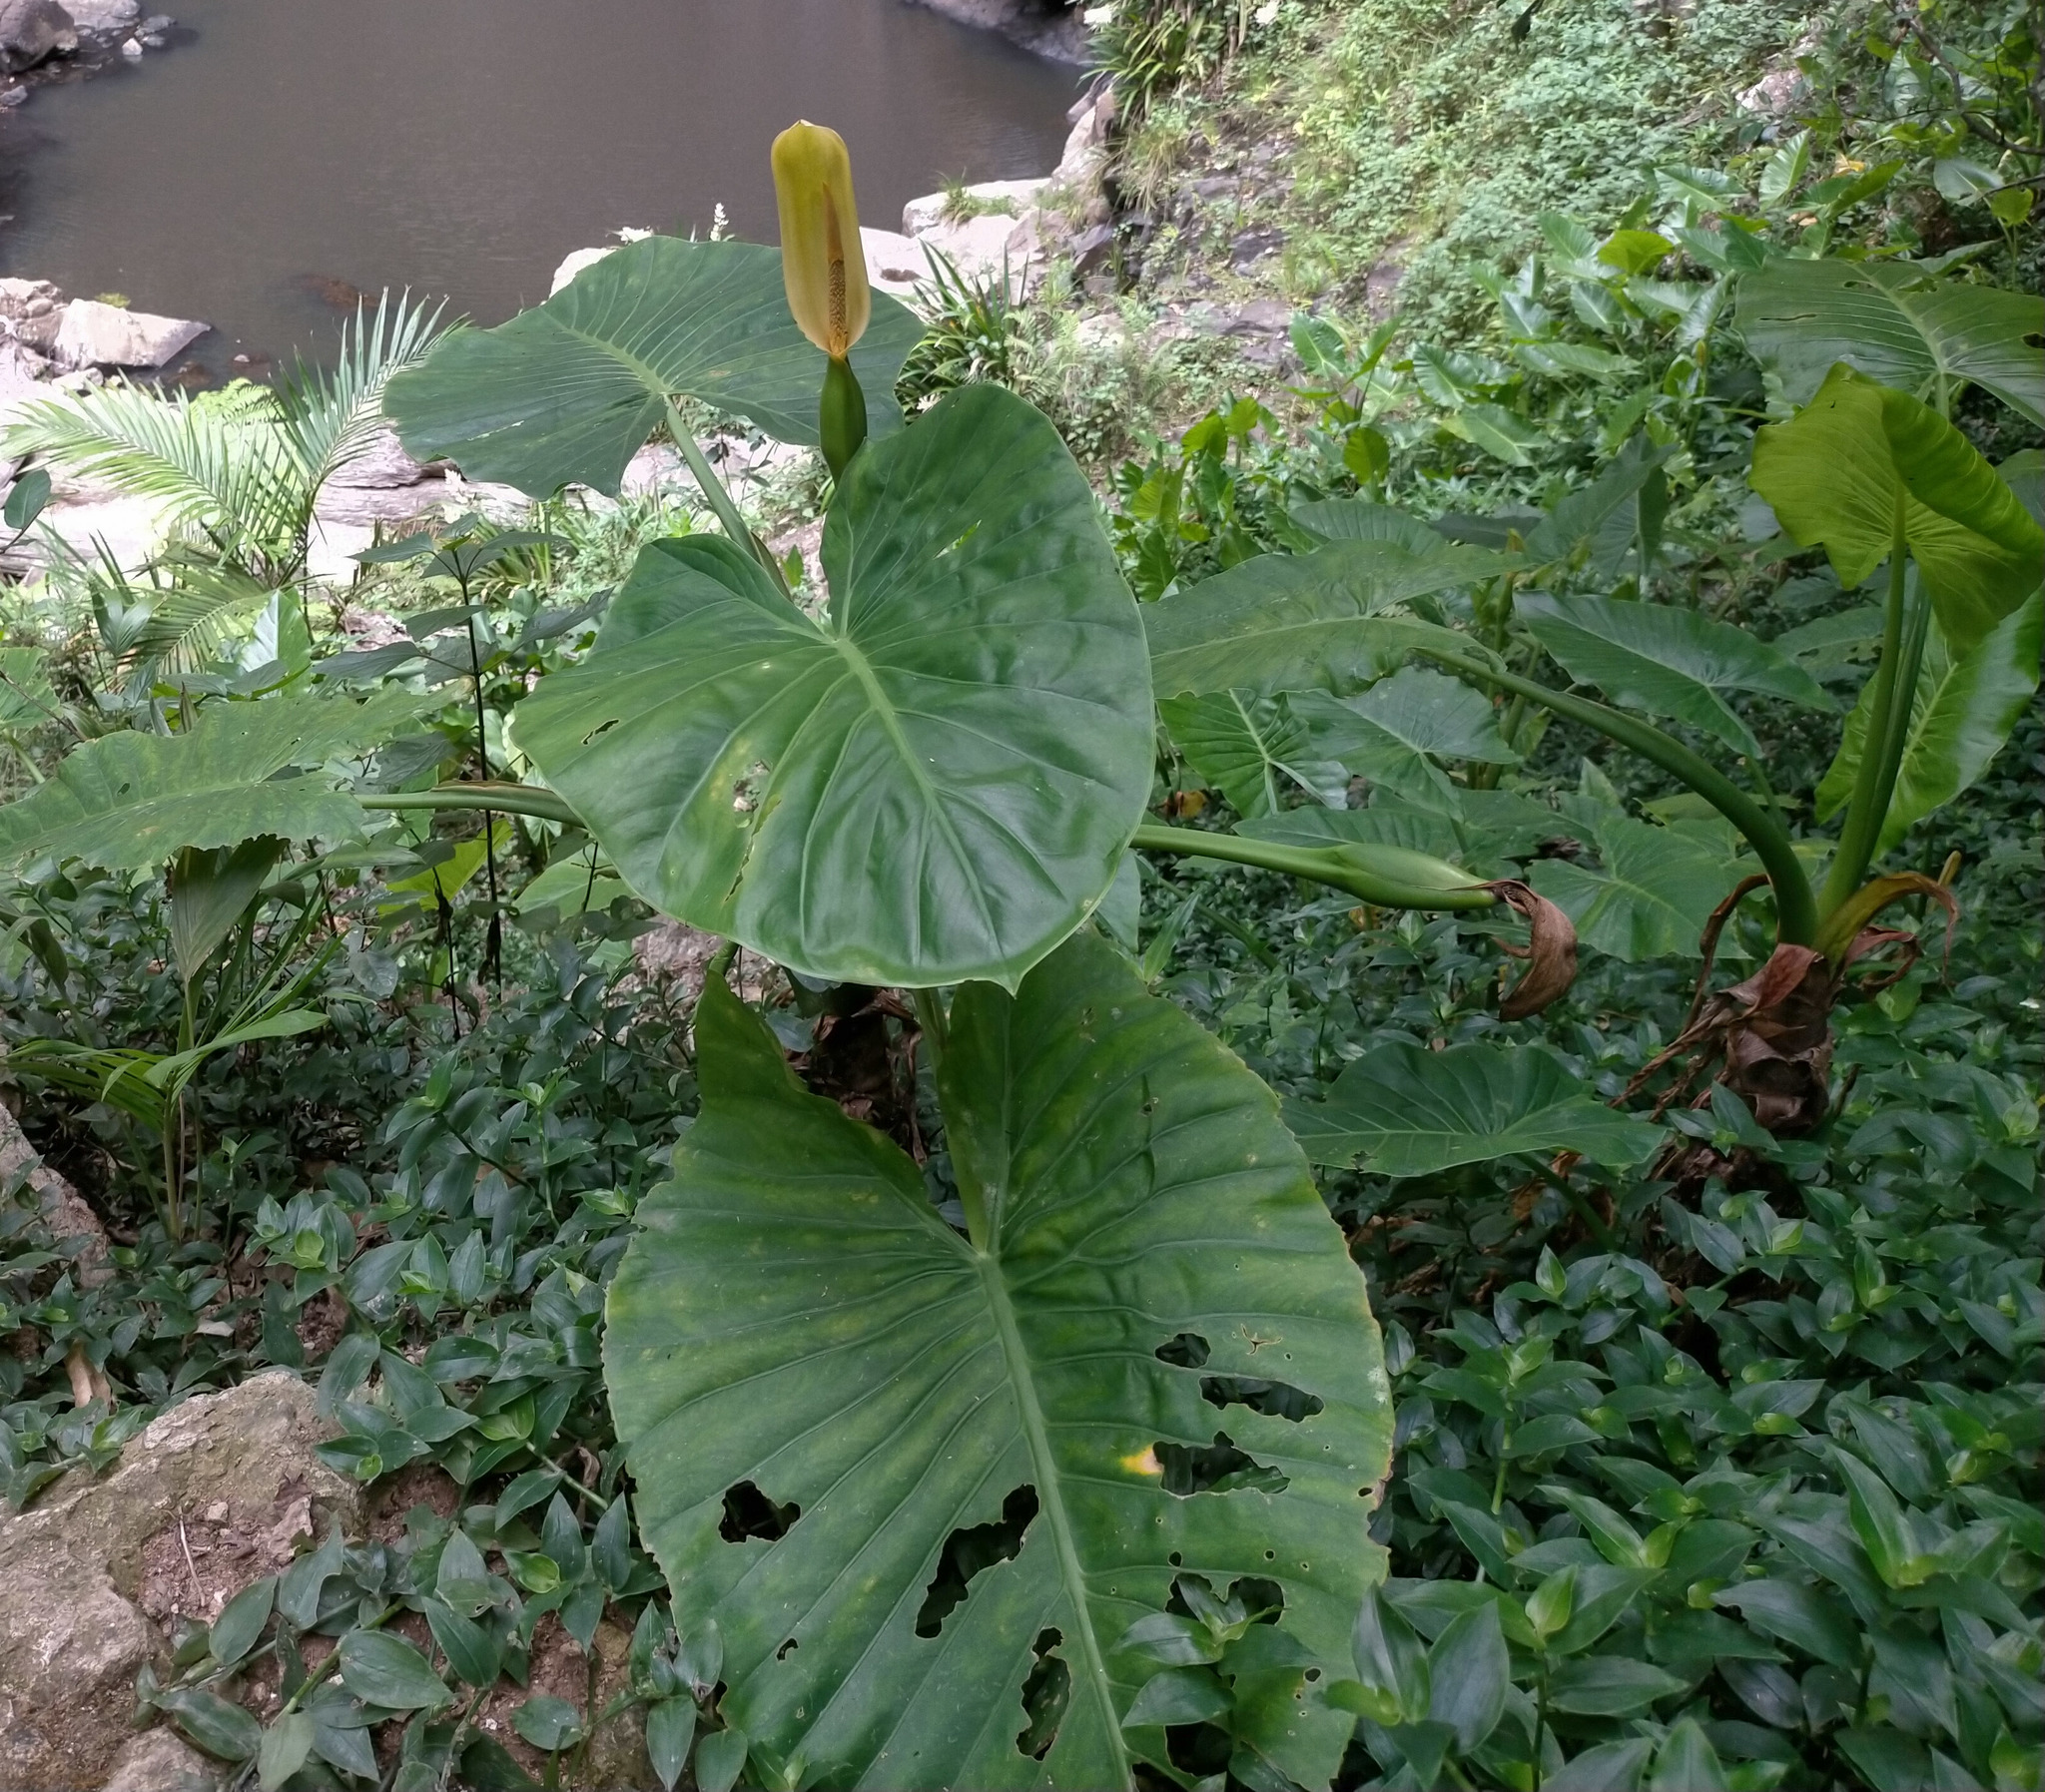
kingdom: Plantae
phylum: Tracheophyta
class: Liliopsida
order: Alismatales
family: Araceae
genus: Alocasia
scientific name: Alocasia brisbanensis
